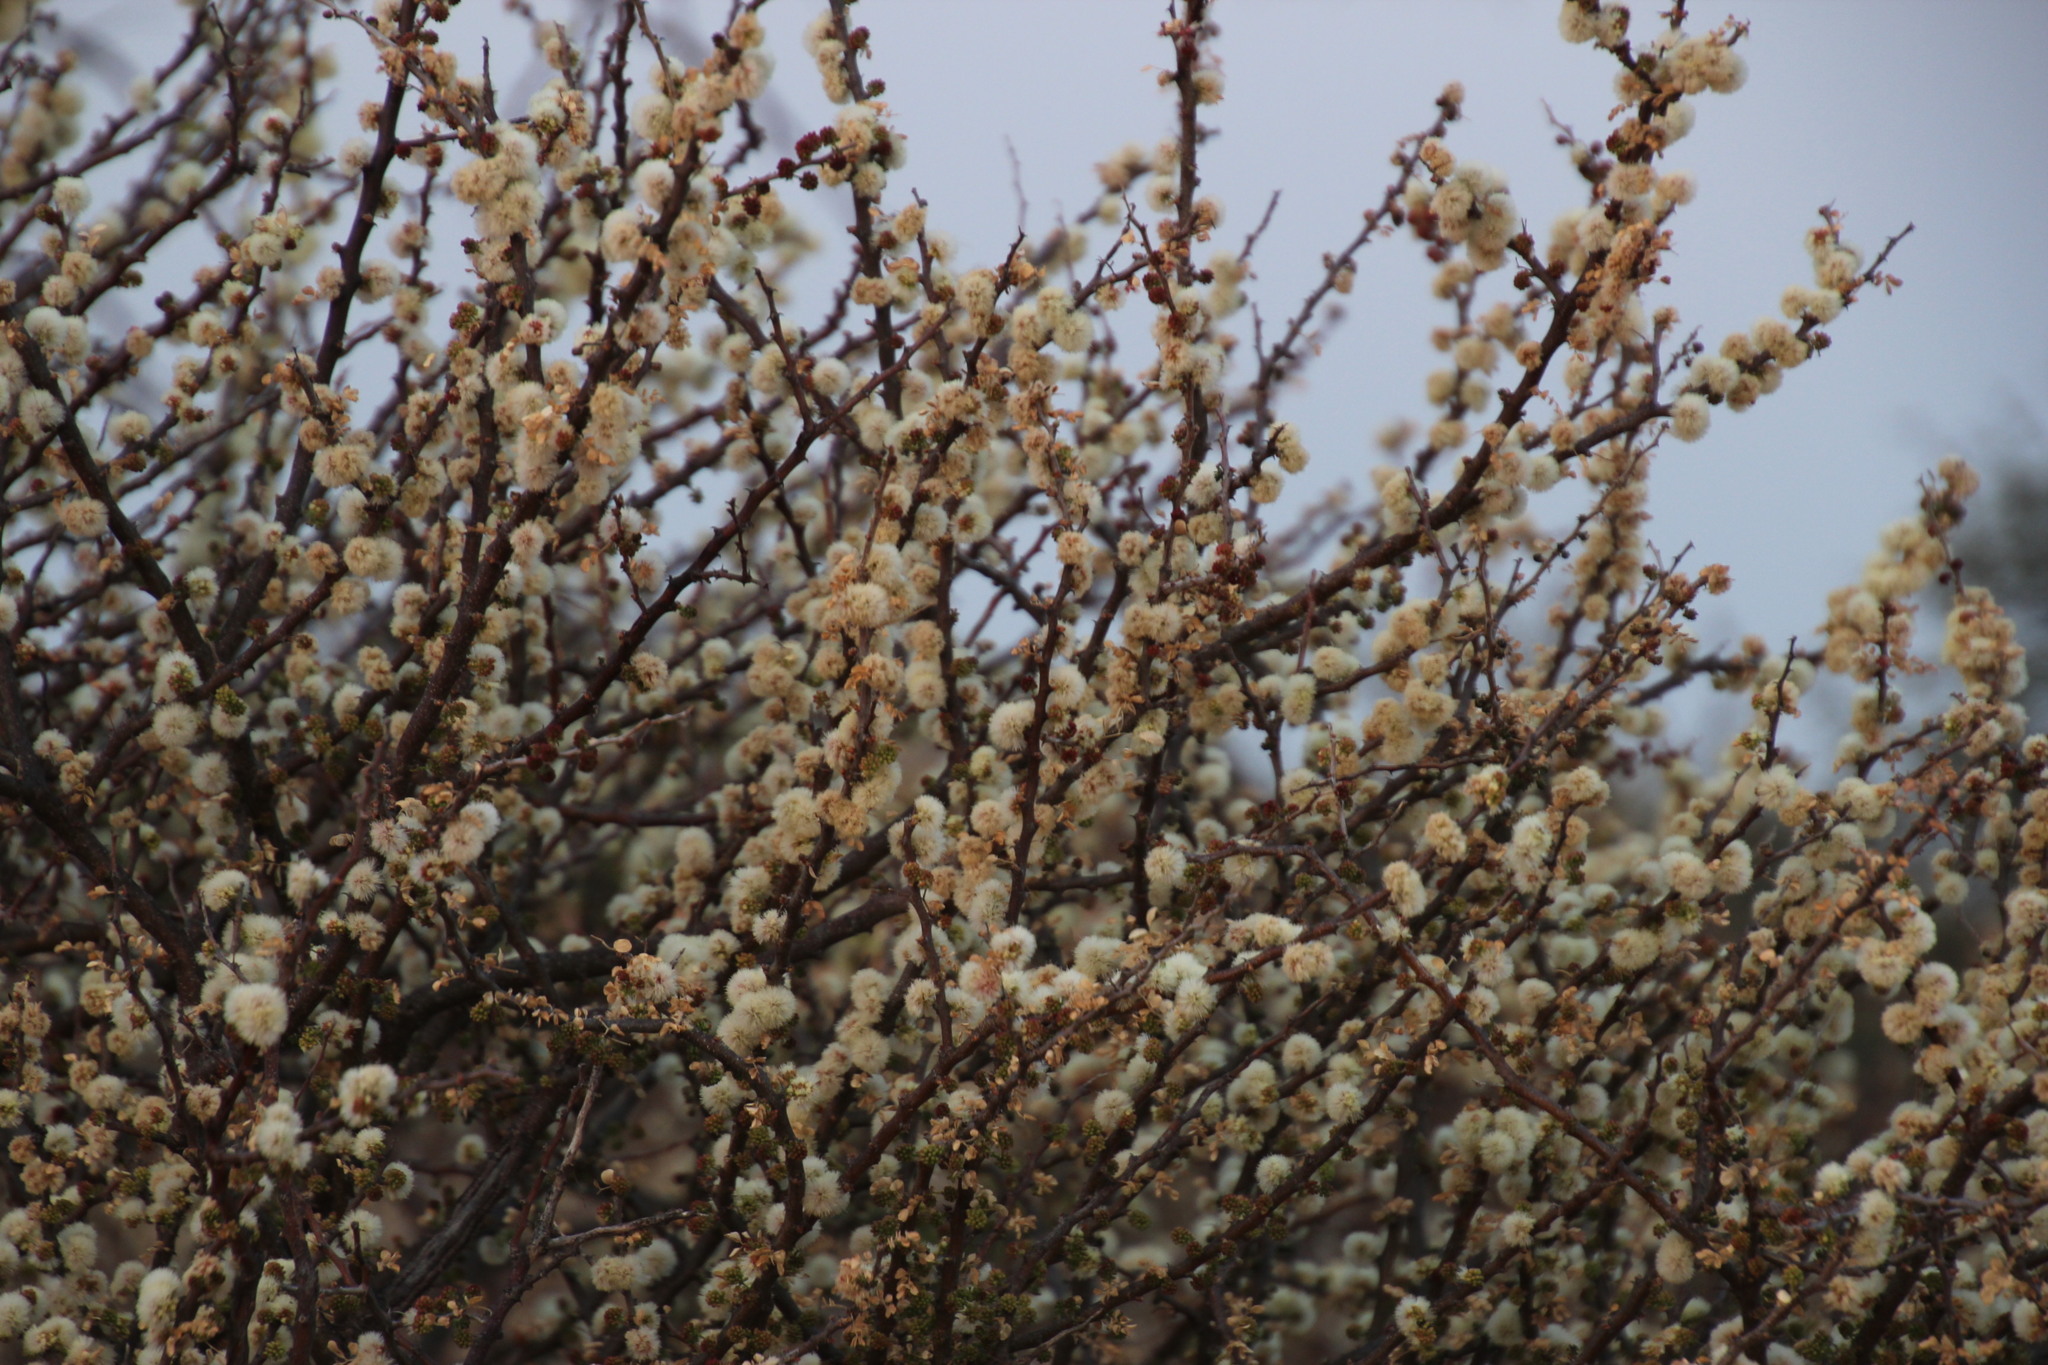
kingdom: Plantae
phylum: Tracheophyta
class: Magnoliopsida
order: Fabales
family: Fabaceae
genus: Senegalia
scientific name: Senegalia mellifera
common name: Hookthorn
